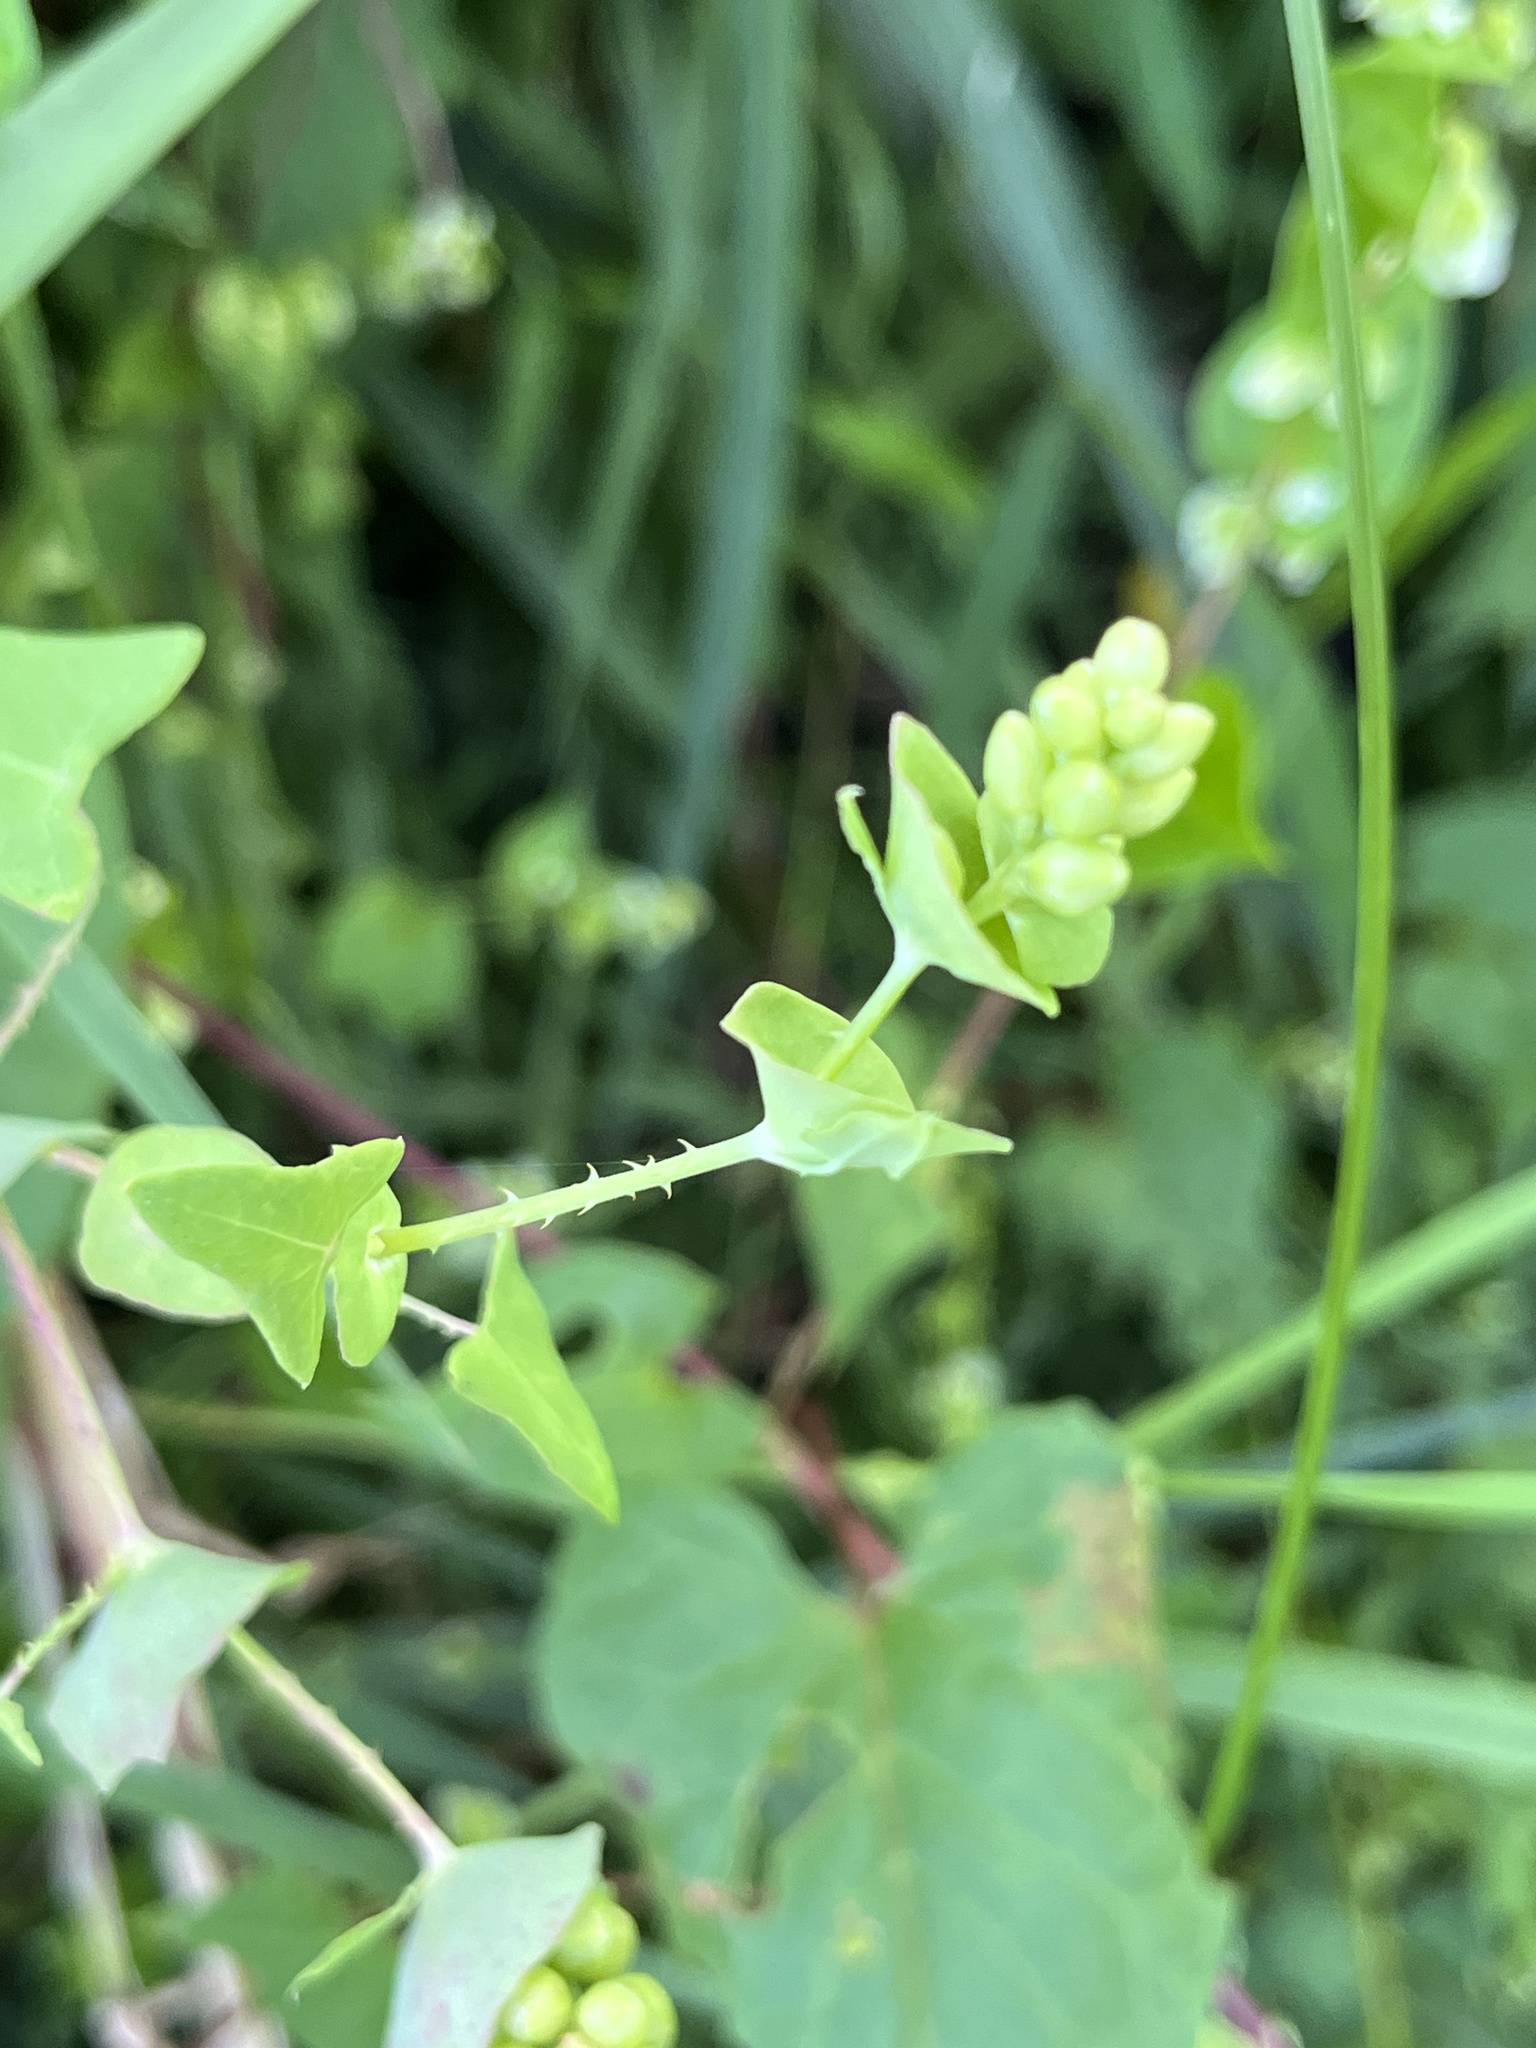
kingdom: Plantae
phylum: Tracheophyta
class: Magnoliopsida
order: Caryophyllales
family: Polygonaceae
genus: Persicaria
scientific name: Persicaria perfoliata
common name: Asiatic tearthumb
